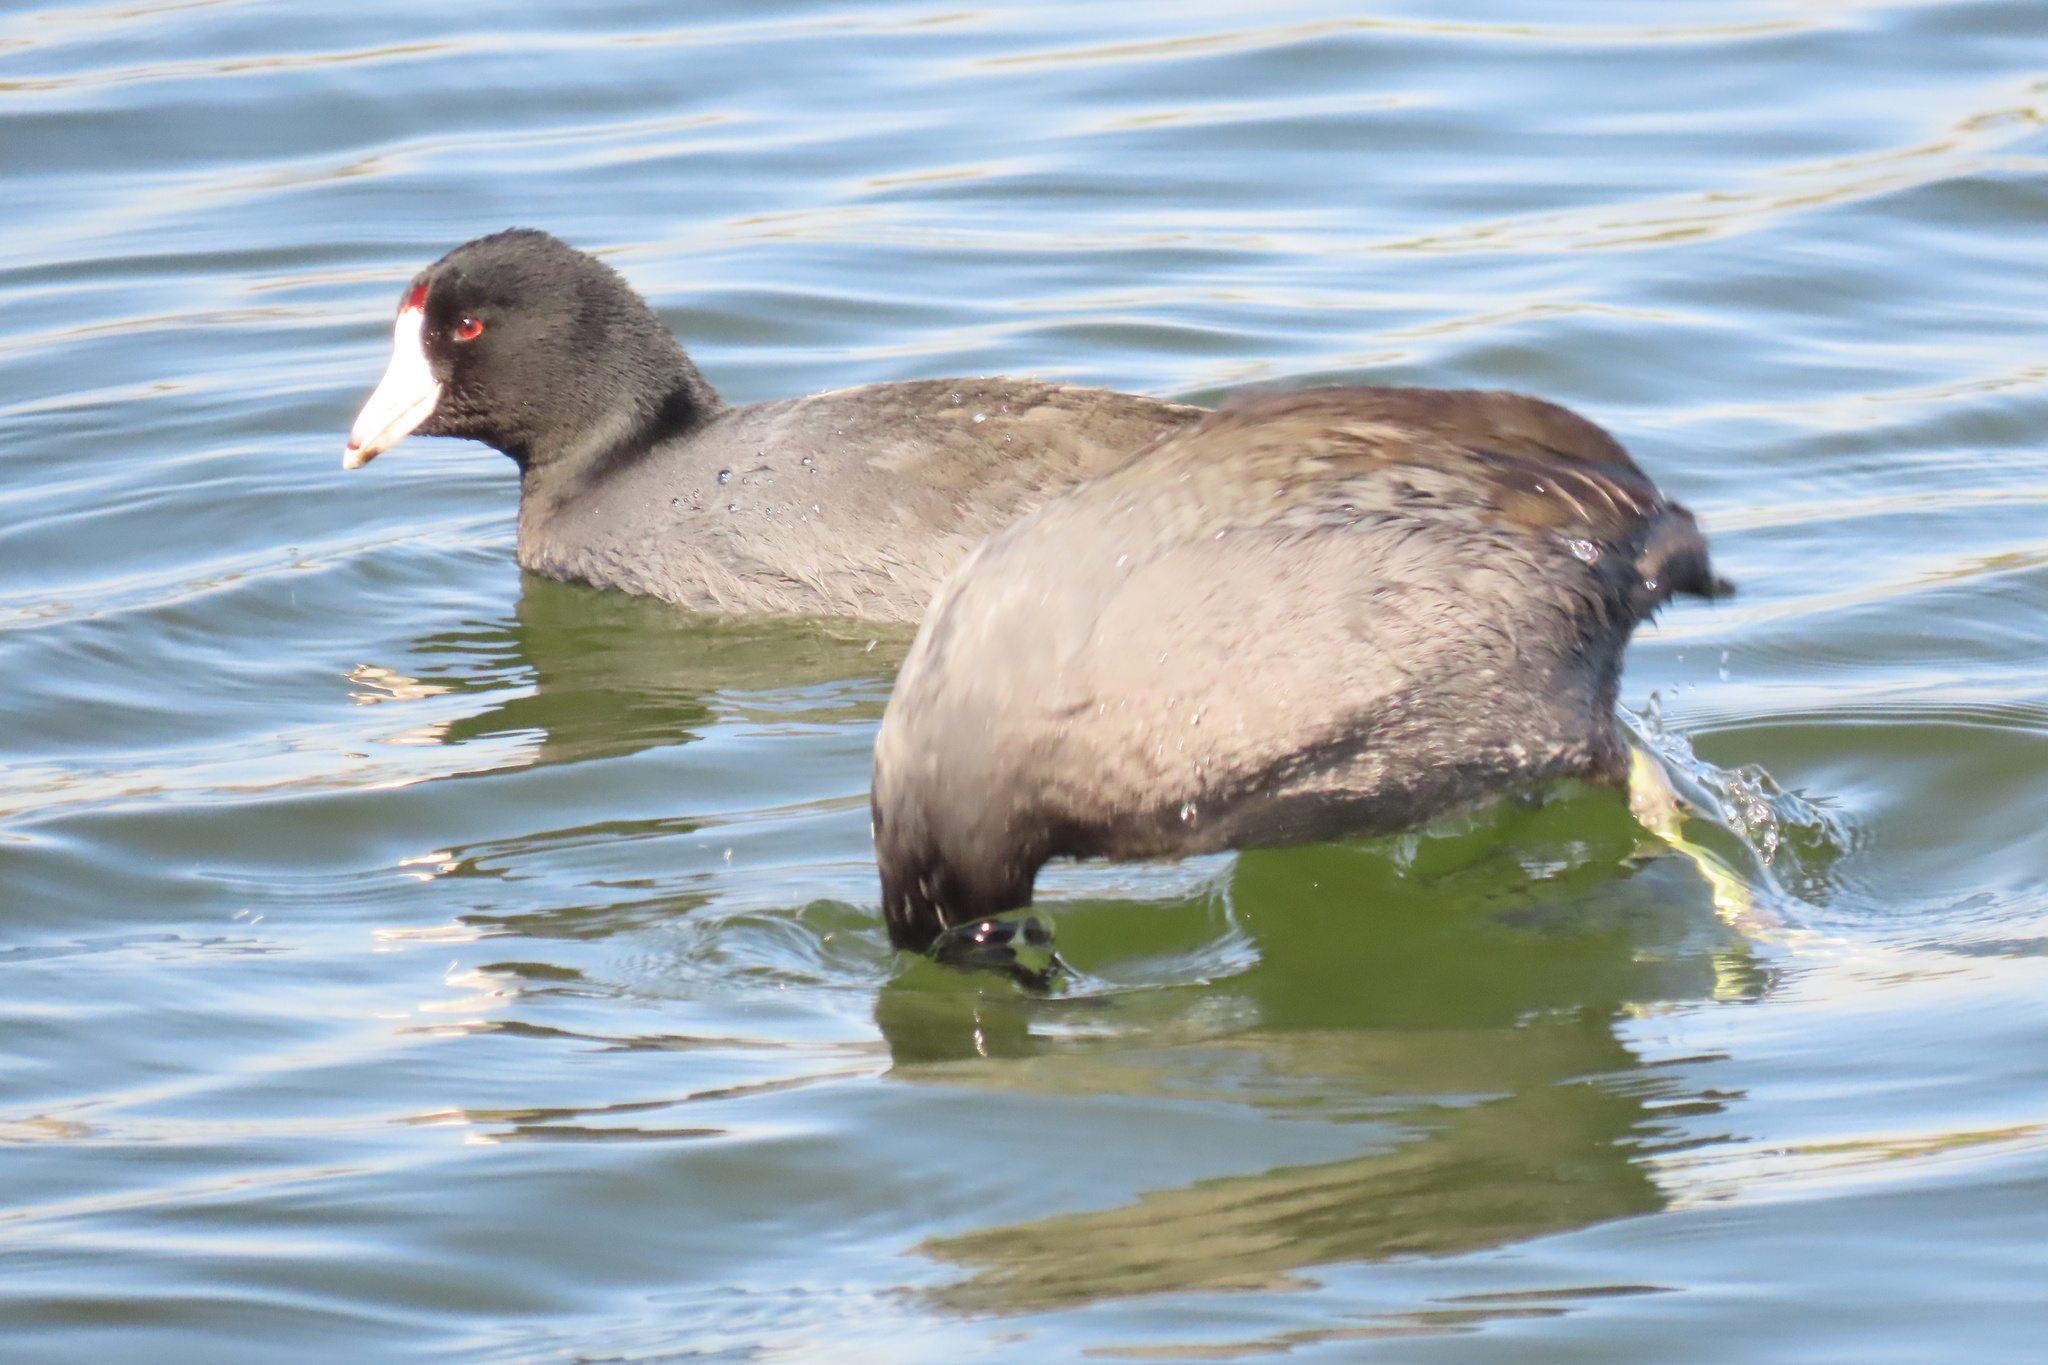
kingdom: Animalia
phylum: Chordata
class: Aves
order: Gruiformes
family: Rallidae
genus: Fulica
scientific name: Fulica americana
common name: American coot
